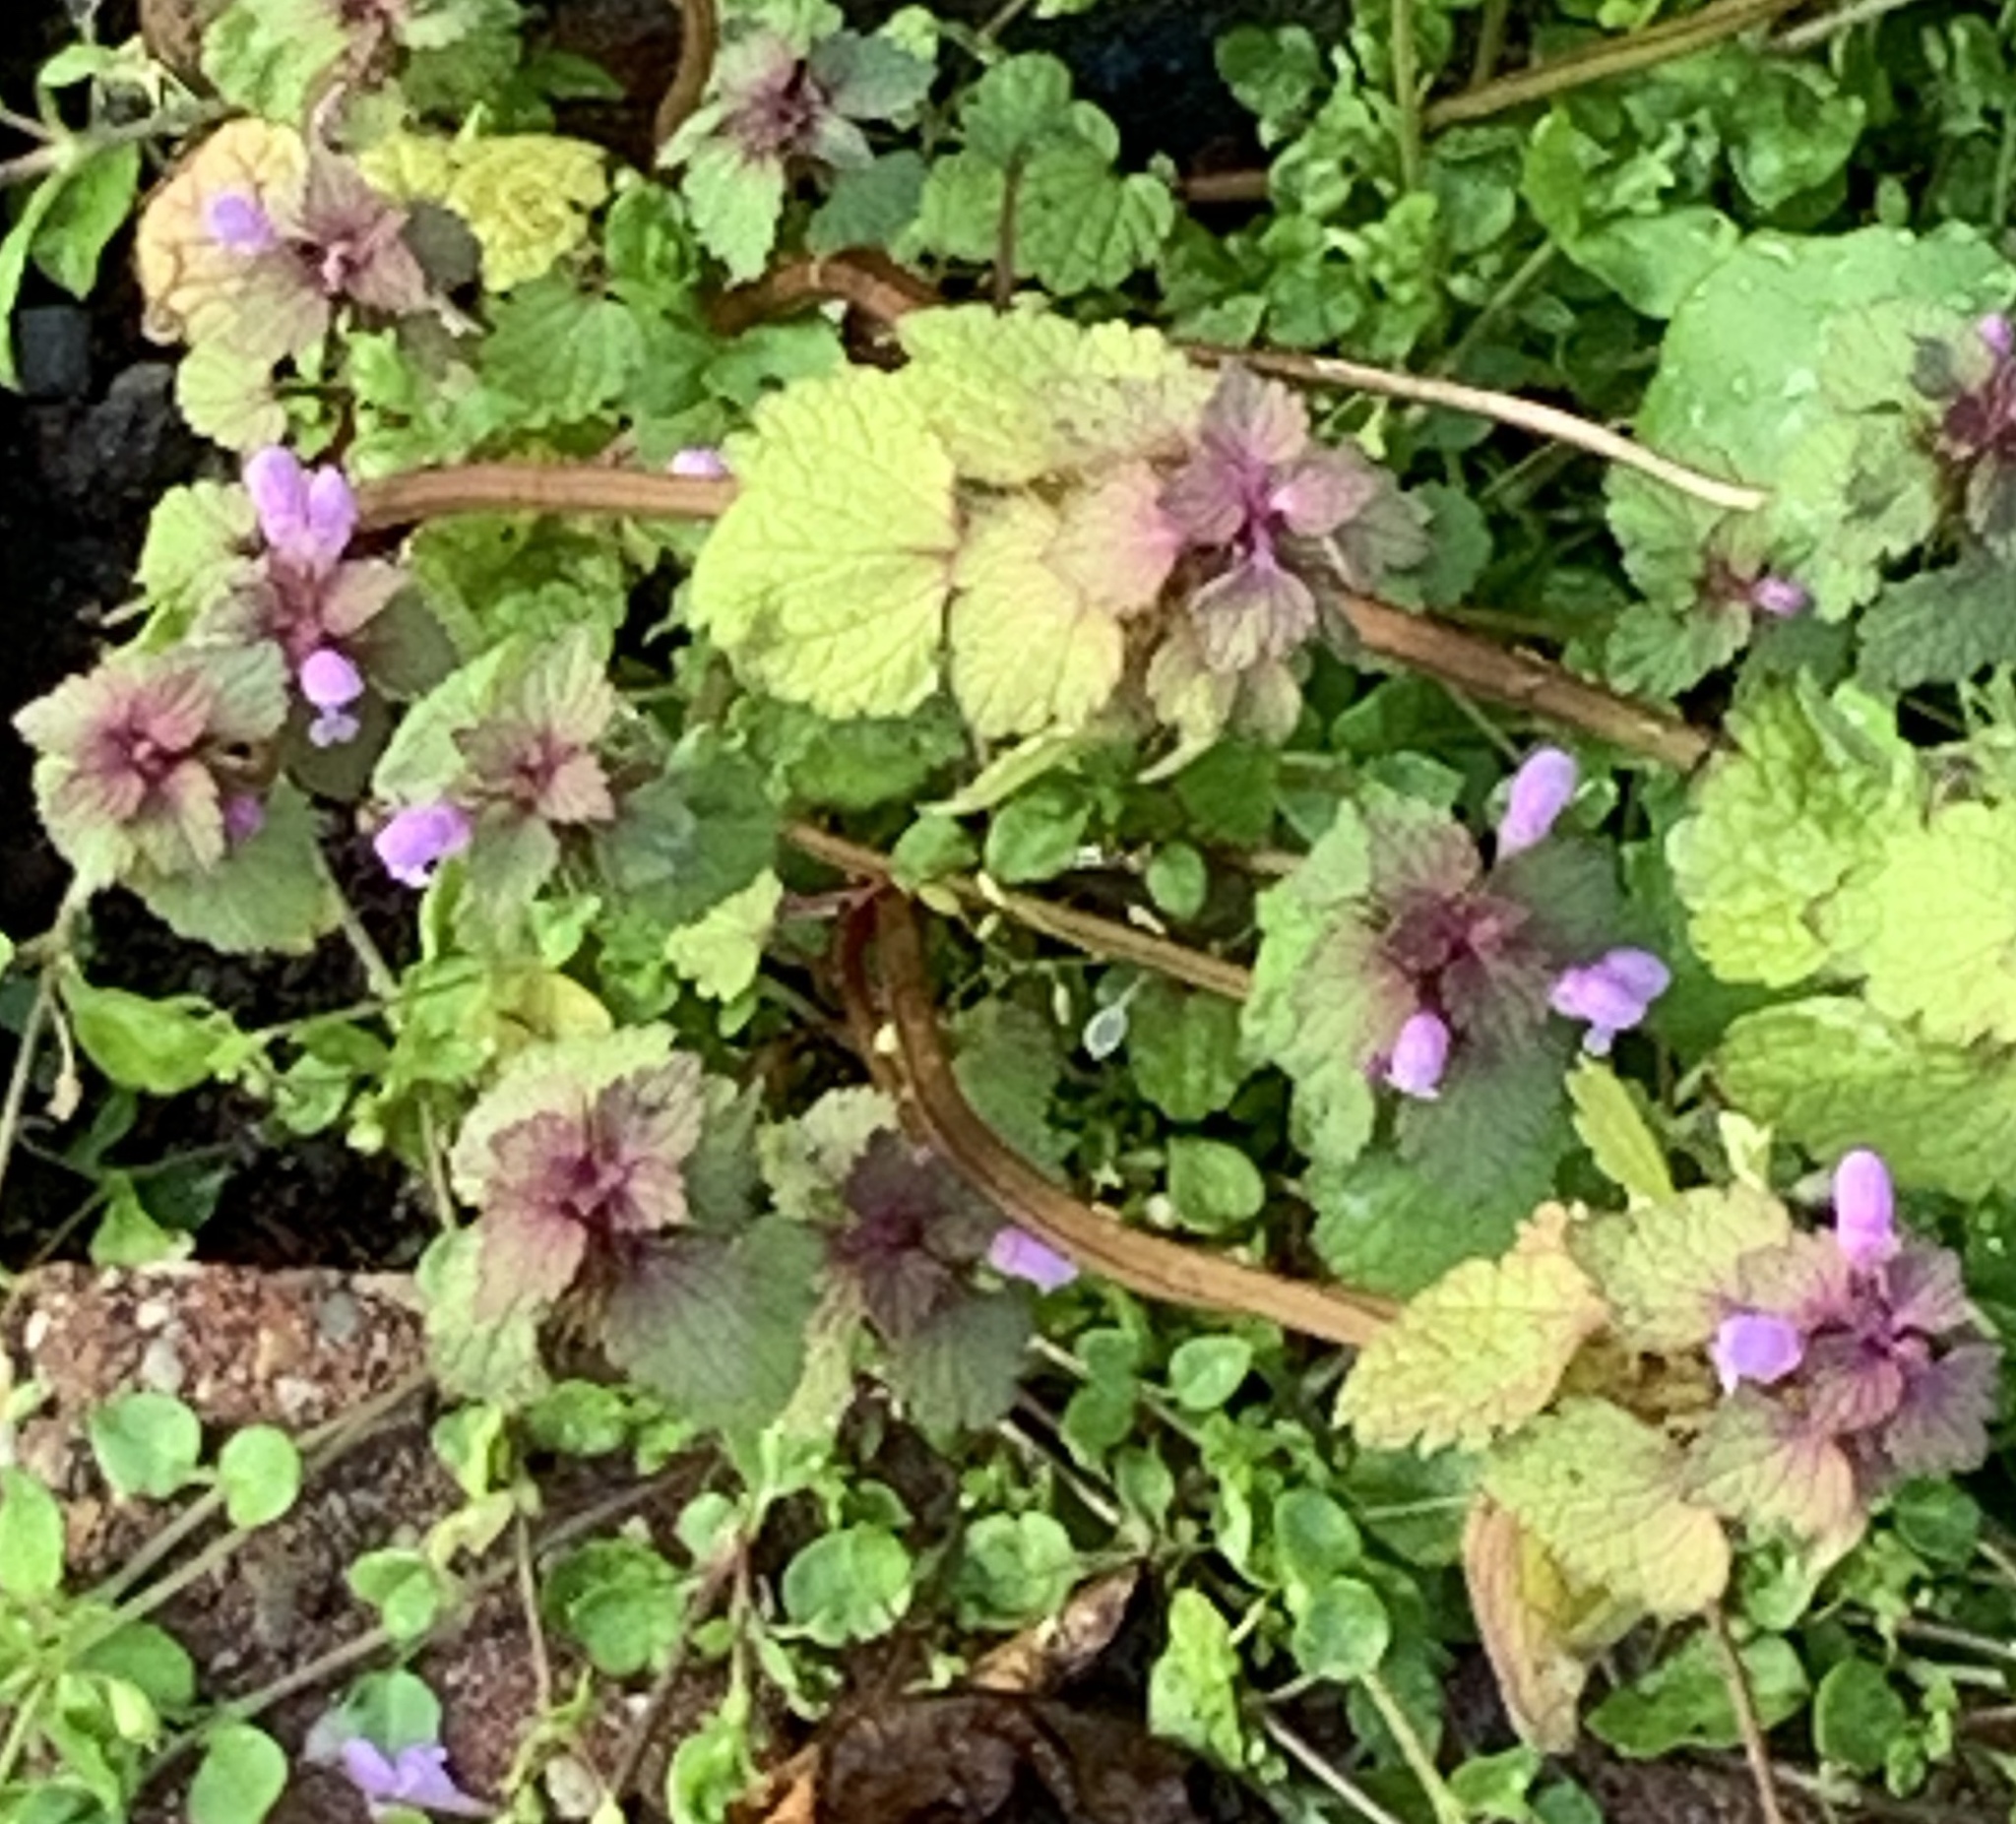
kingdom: Plantae
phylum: Tracheophyta
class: Magnoliopsida
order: Lamiales
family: Lamiaceae
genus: Lamium
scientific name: Lamium purpureum
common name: Red dead-nettle
